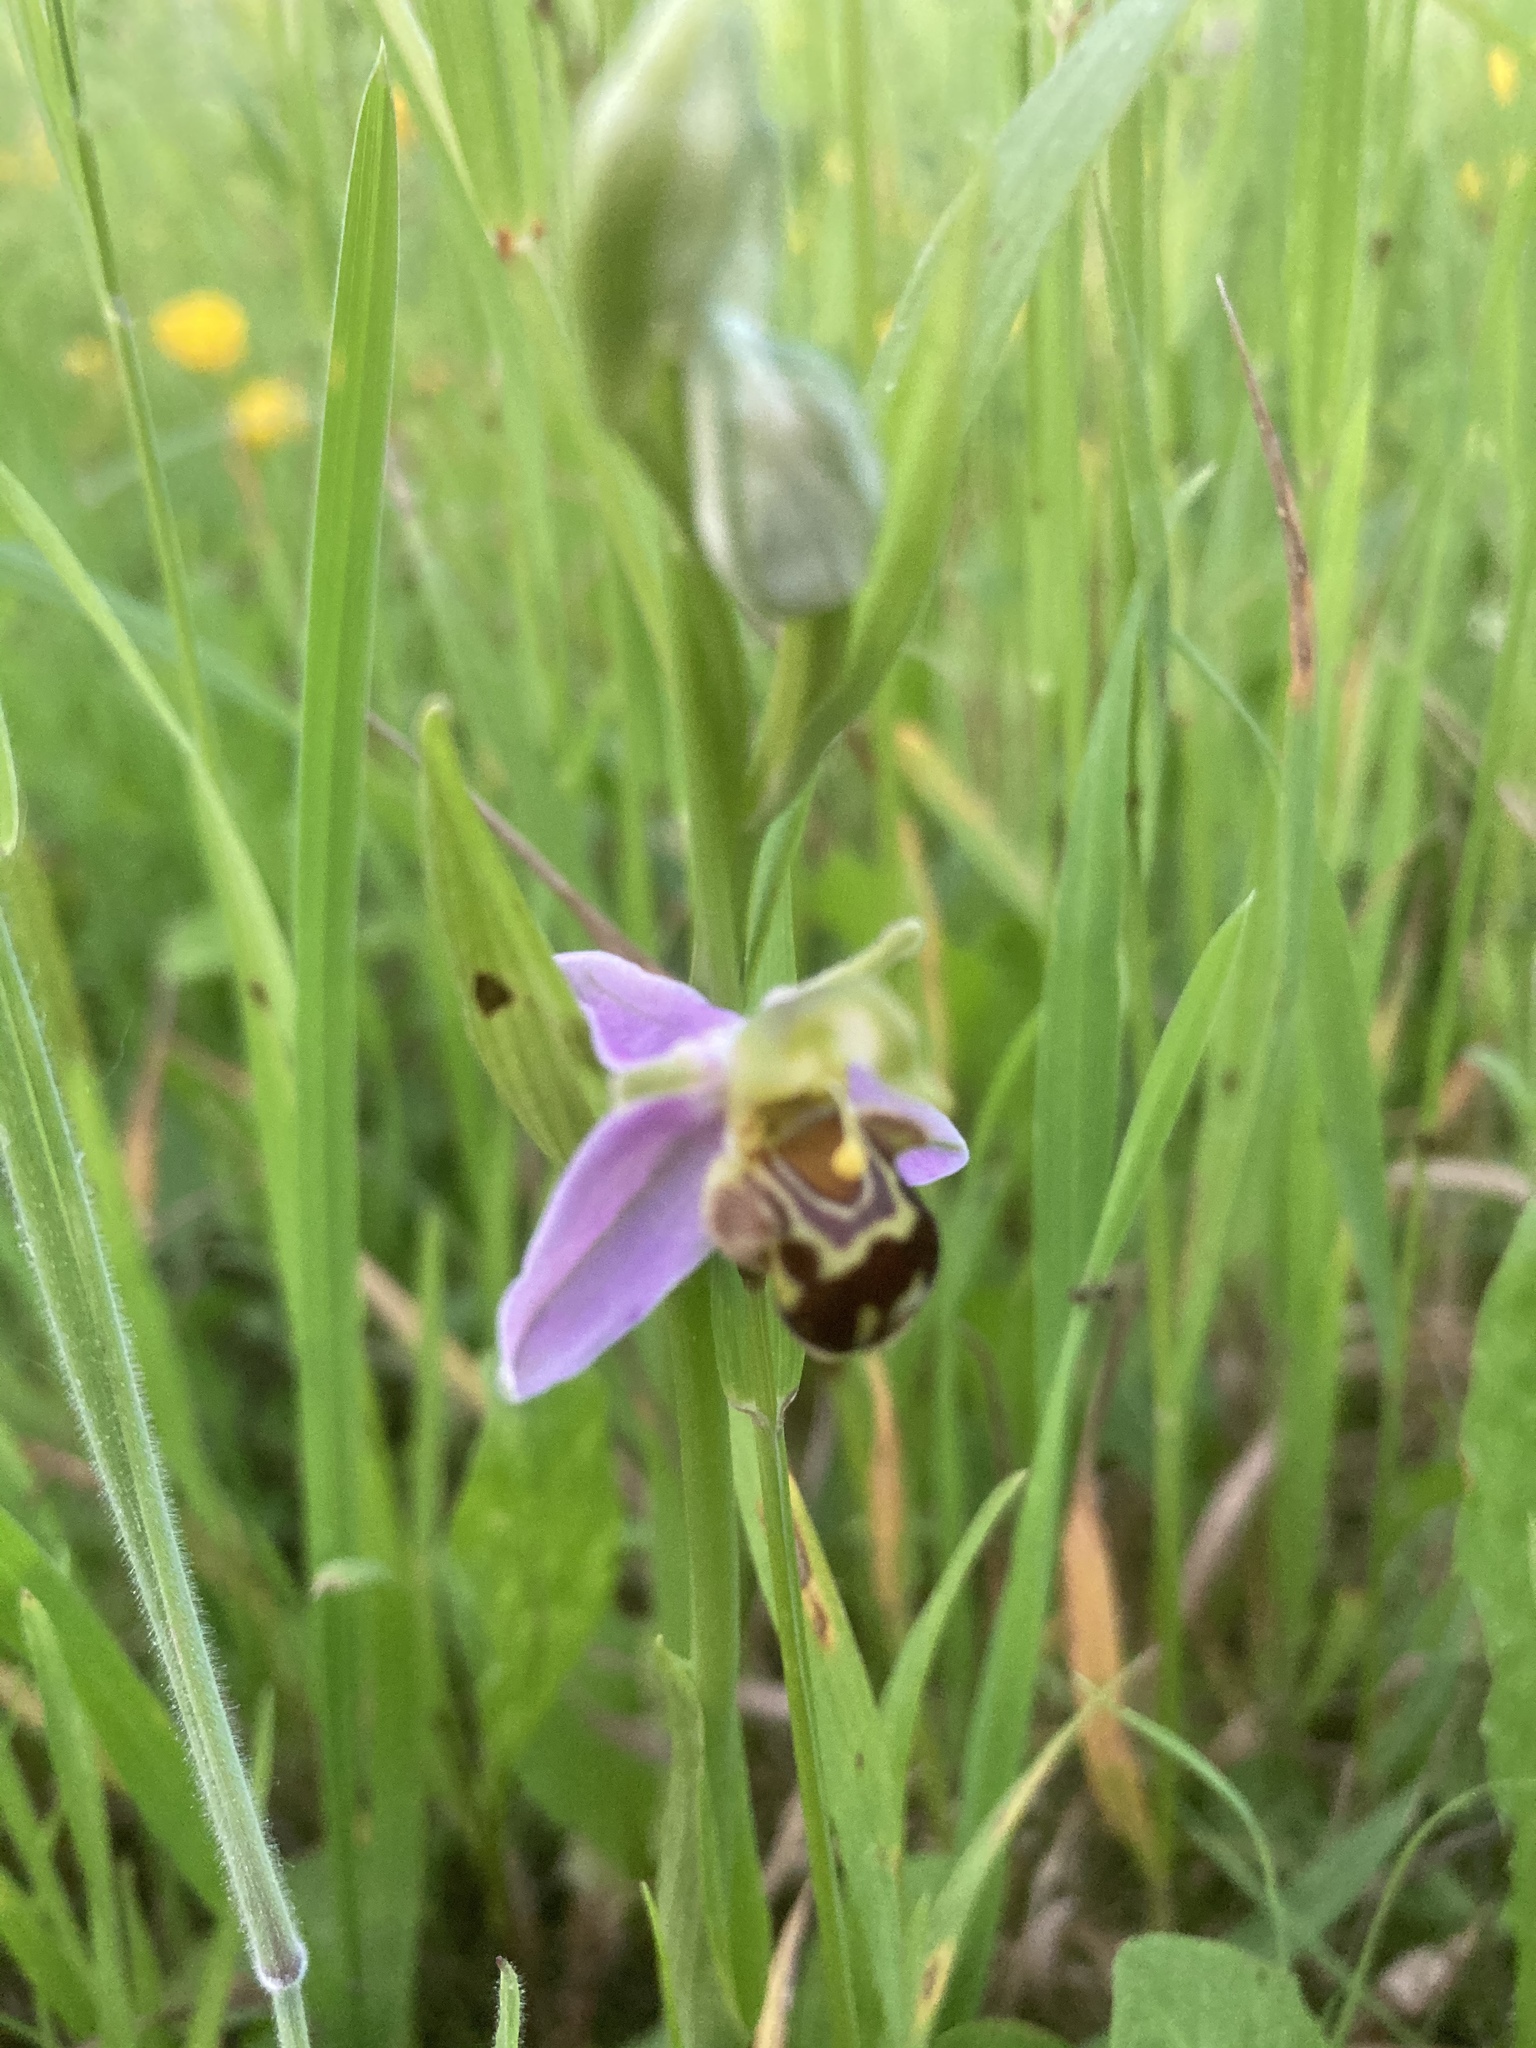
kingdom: Plantae
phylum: Tracheophyta
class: Liliopsida
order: Asparagales
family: Orchidaceae
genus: Ophrys
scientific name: Ophrys apifera
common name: Bee orchid
